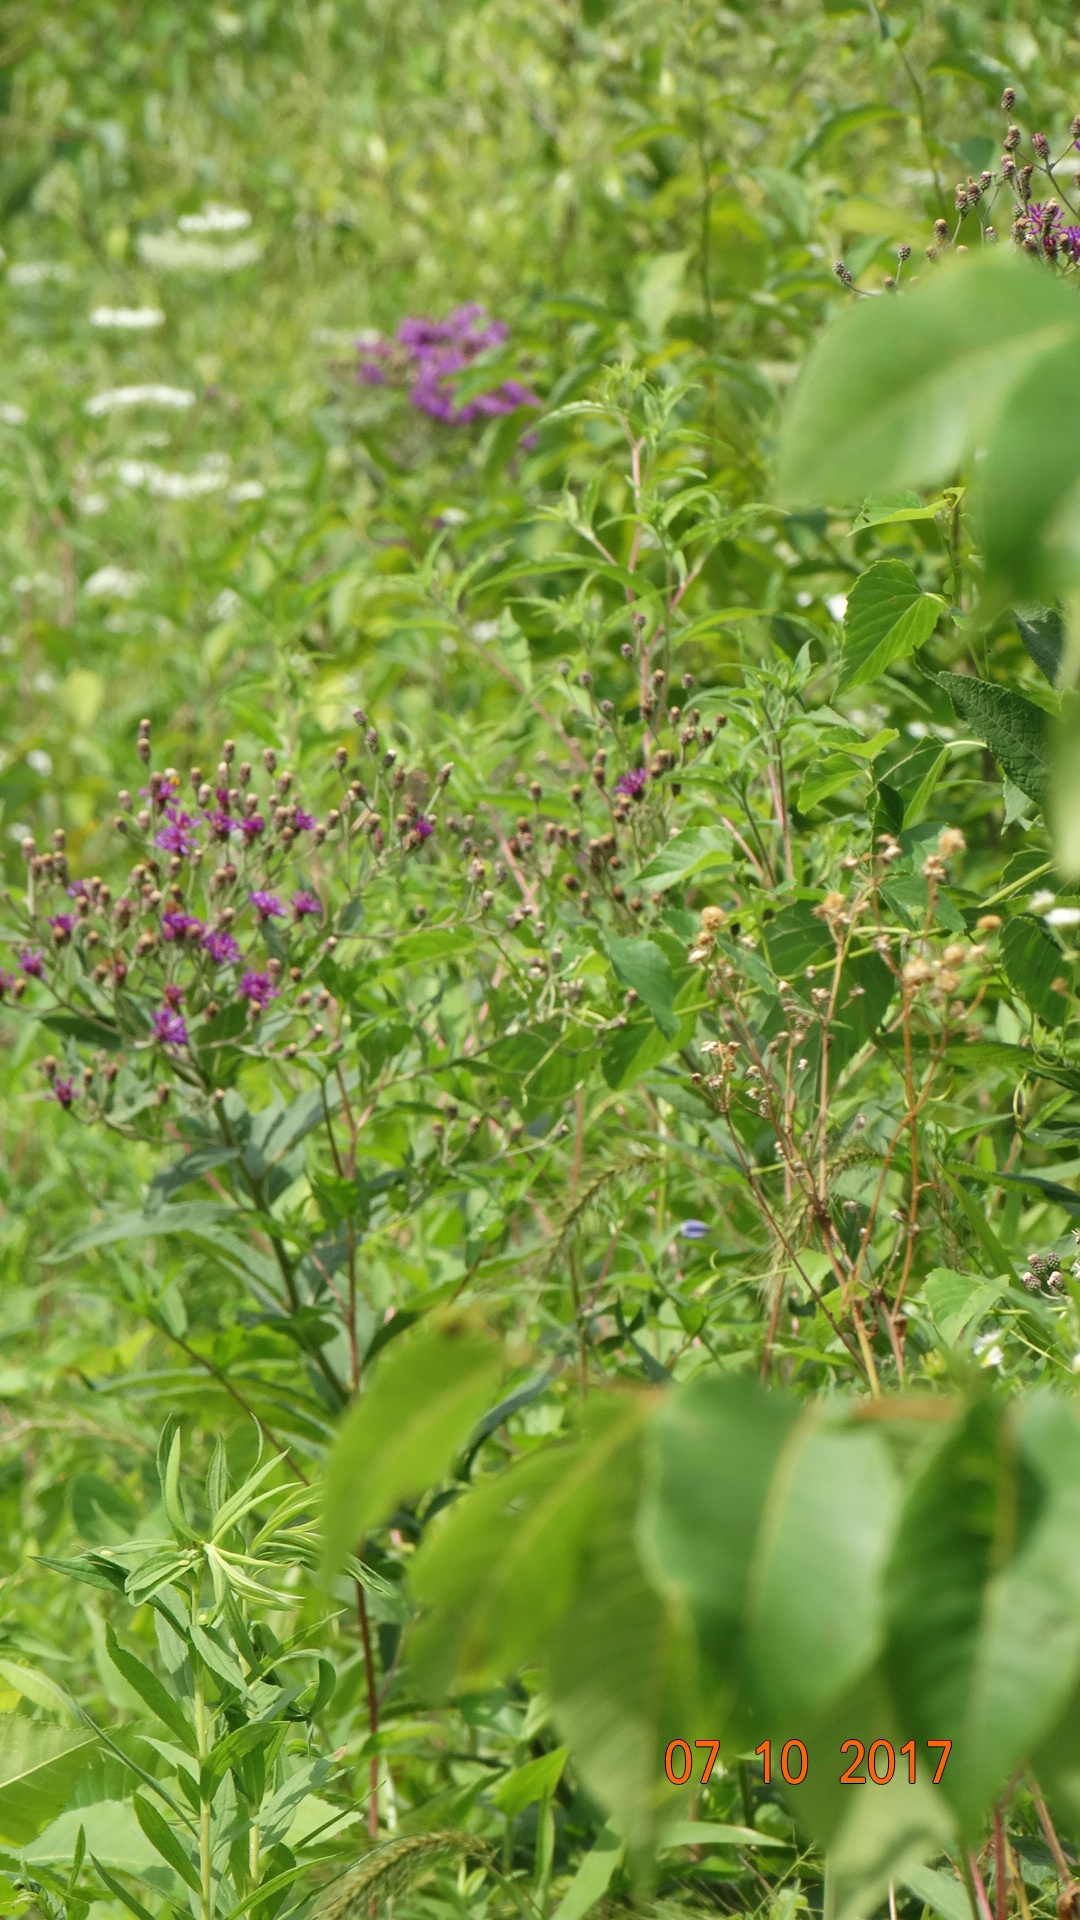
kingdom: Plantae
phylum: Tracheophyta
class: Magnoliopsida
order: Asterales
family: Asteraceae
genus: Vernonia
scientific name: Vernonia baldwinii
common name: Western ironweed
